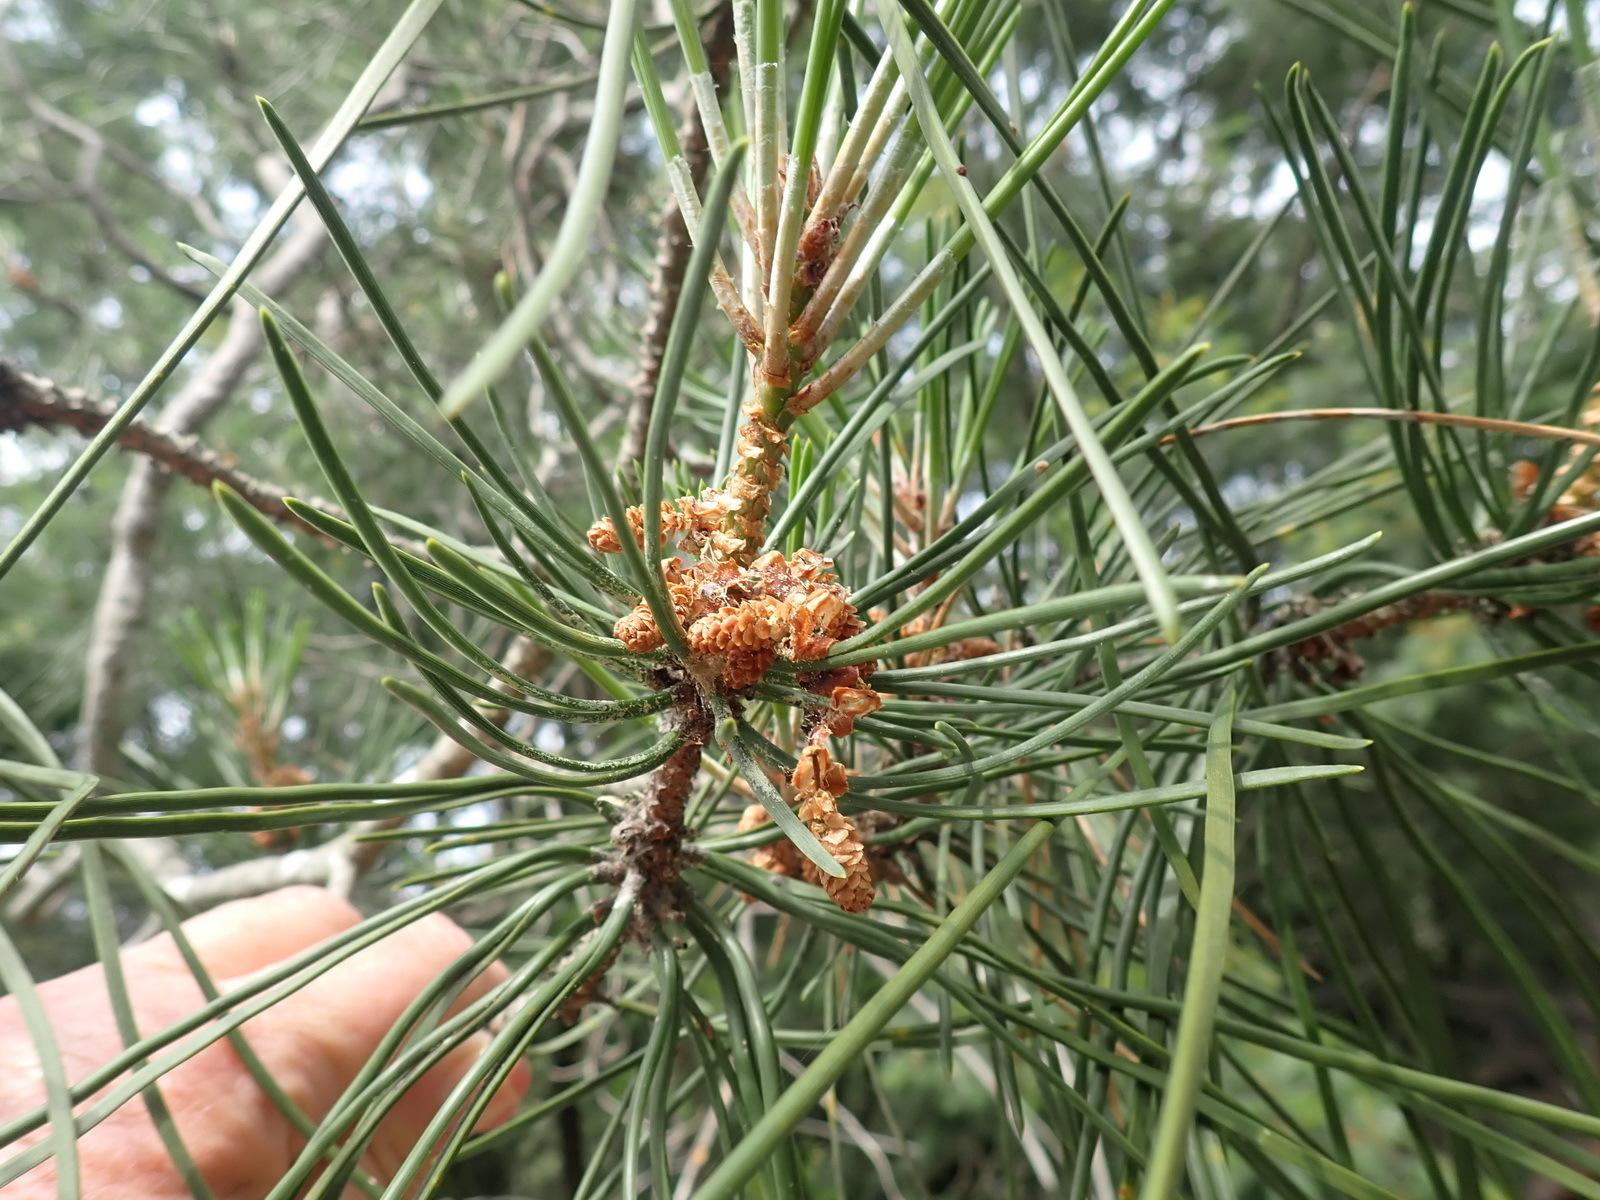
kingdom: Plantae
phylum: Tracheophyta
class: Pinopsida
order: Pinales
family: Pinaceae
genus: Pinus
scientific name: Pinus pinaster
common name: Maritime pine
